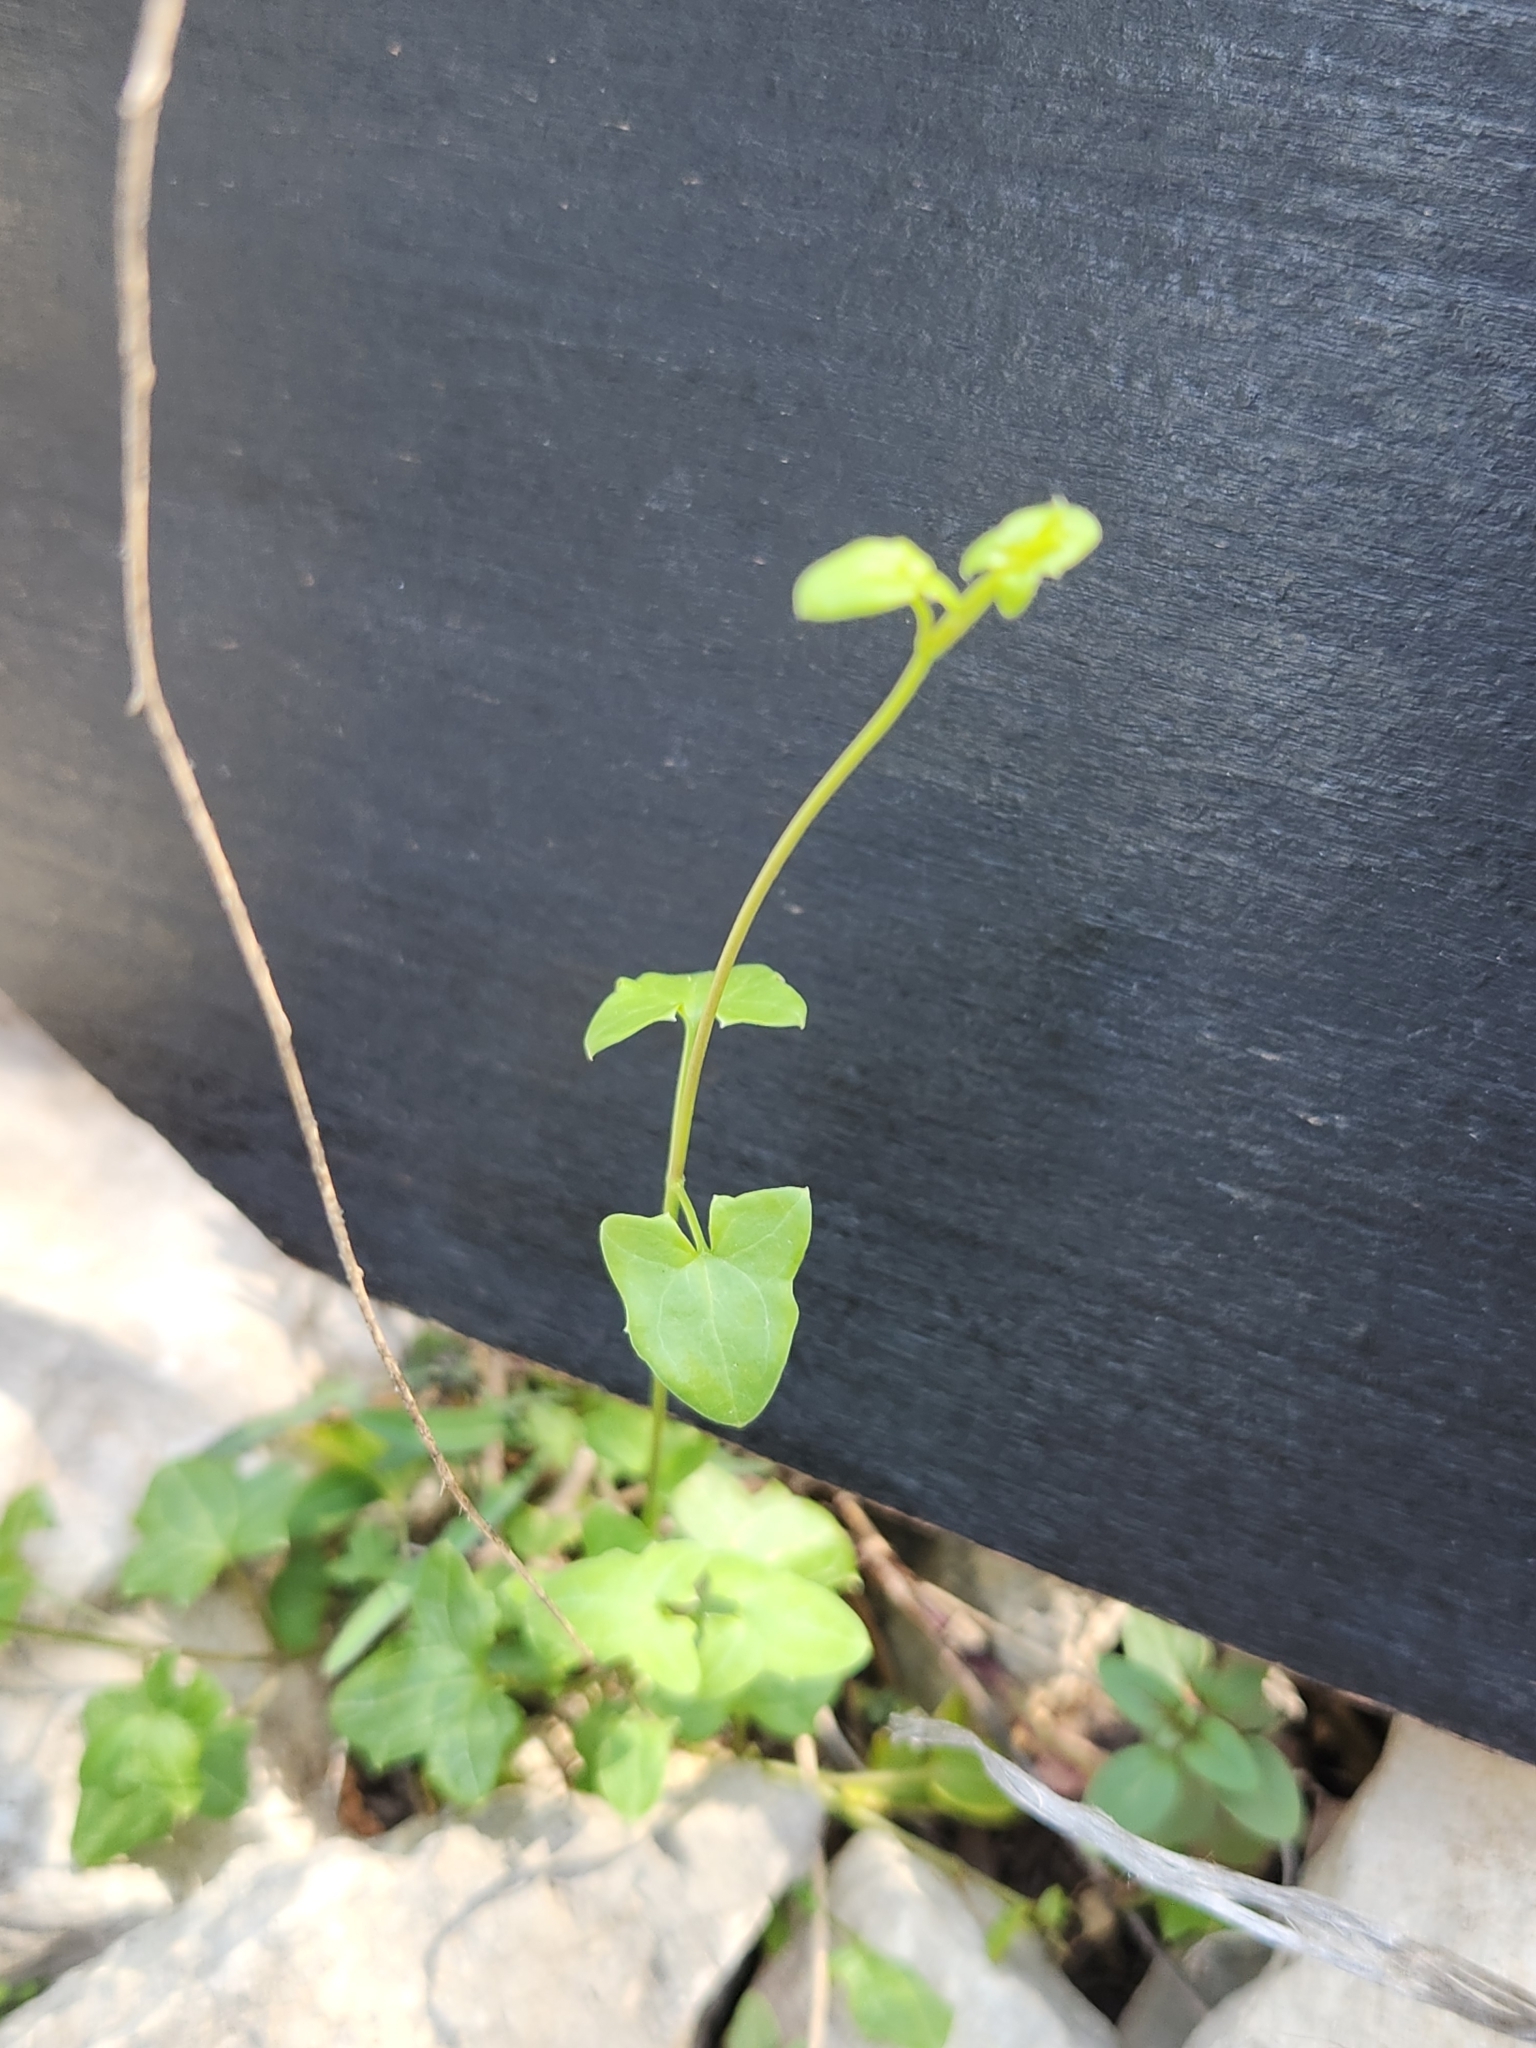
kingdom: Plantae
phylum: Tracheophyta
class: Magnoliopsida
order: Lamiales
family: Plantaginaceae
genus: Maurandella
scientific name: Maurandella antirrhiniflora
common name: Violet twining-snapdragon
